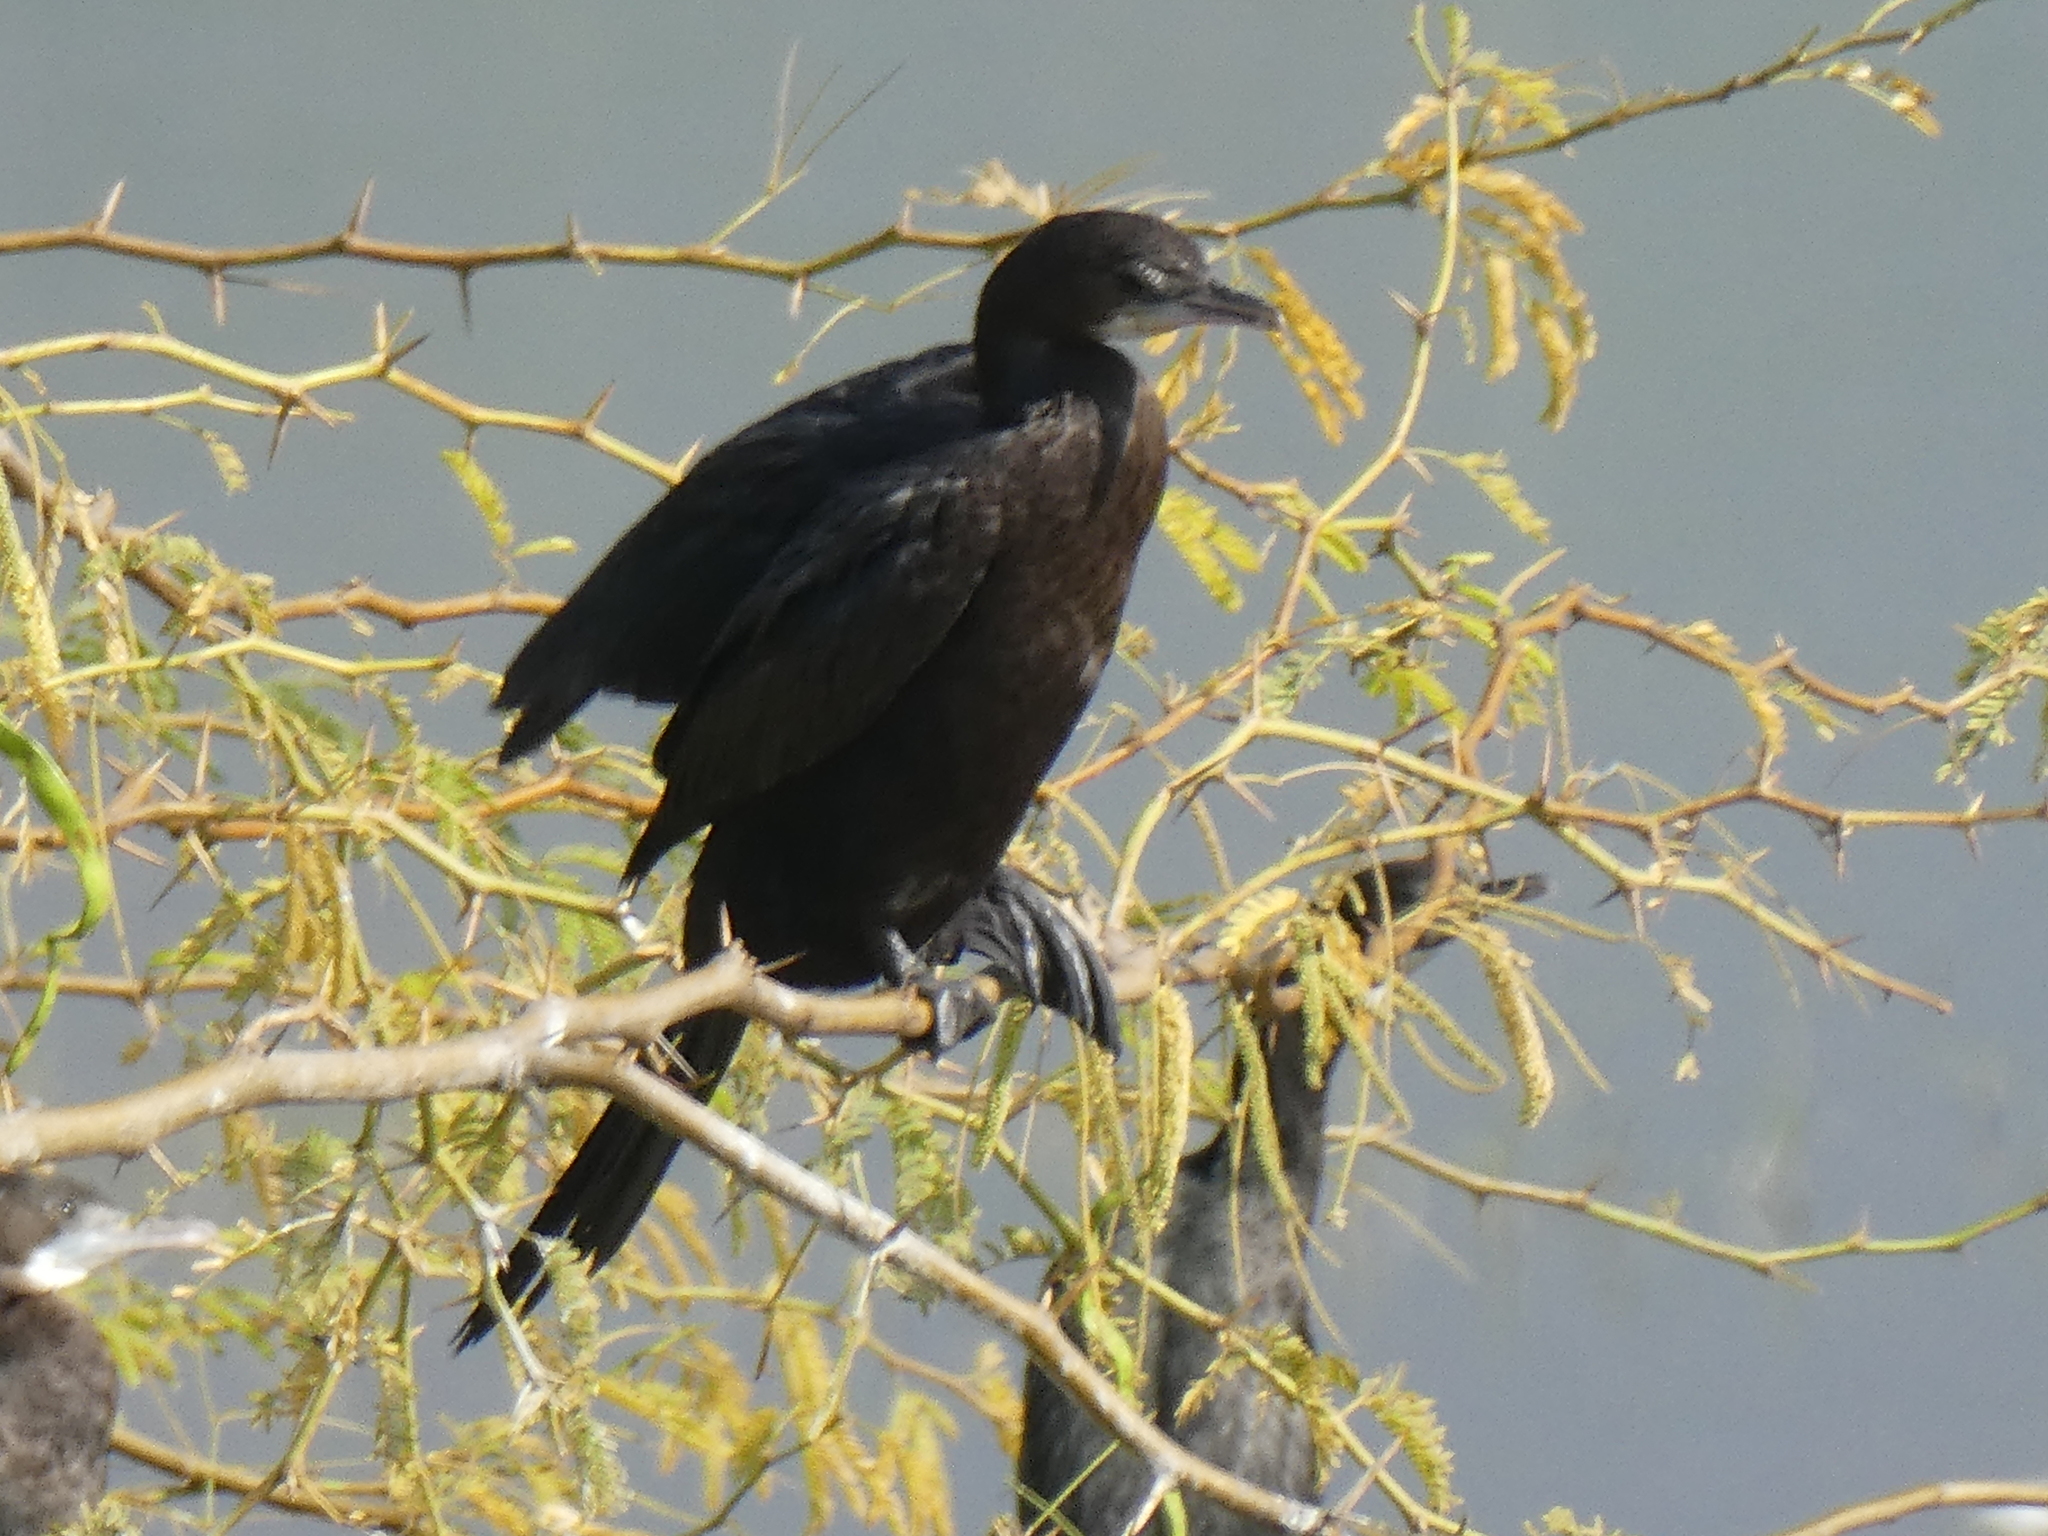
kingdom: Animalia
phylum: Chordata
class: Aves
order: Suliformes
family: Phalacrocoracidae
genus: Microcarbo
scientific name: Microcarbo niger
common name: Little cormorant
